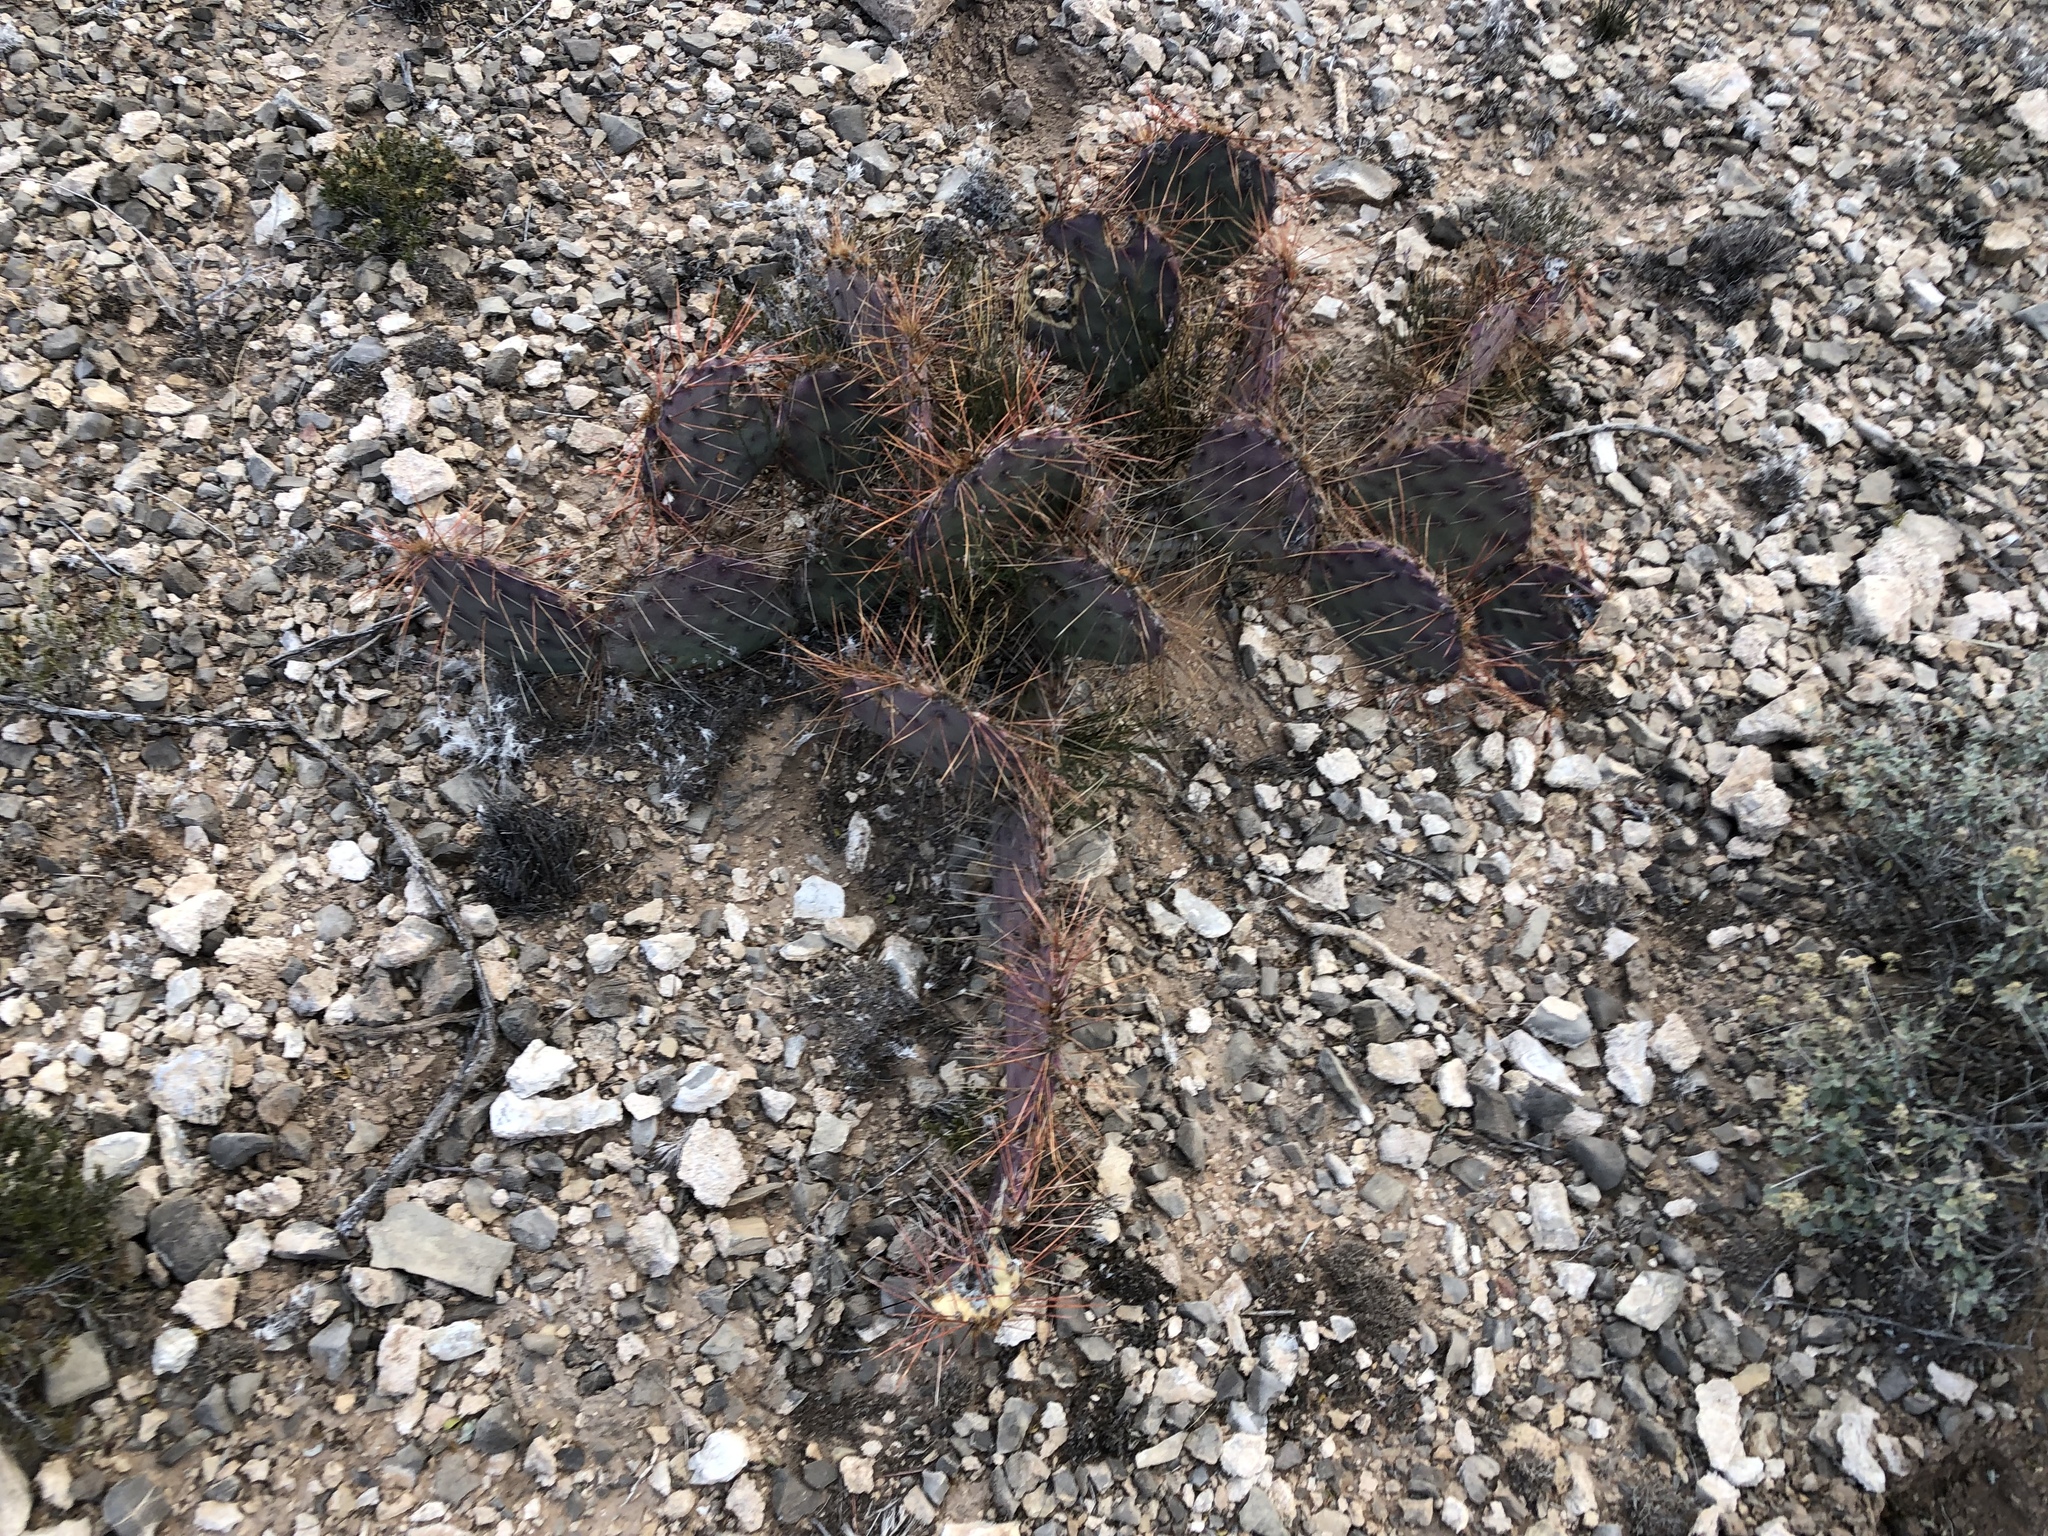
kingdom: Plantae
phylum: Tracheophyta
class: Magnoliopsida
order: Caryophyllales
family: Cactaceae
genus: Opuntia
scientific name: Opuntia phaeacantha
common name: New mexico prickly-pear
